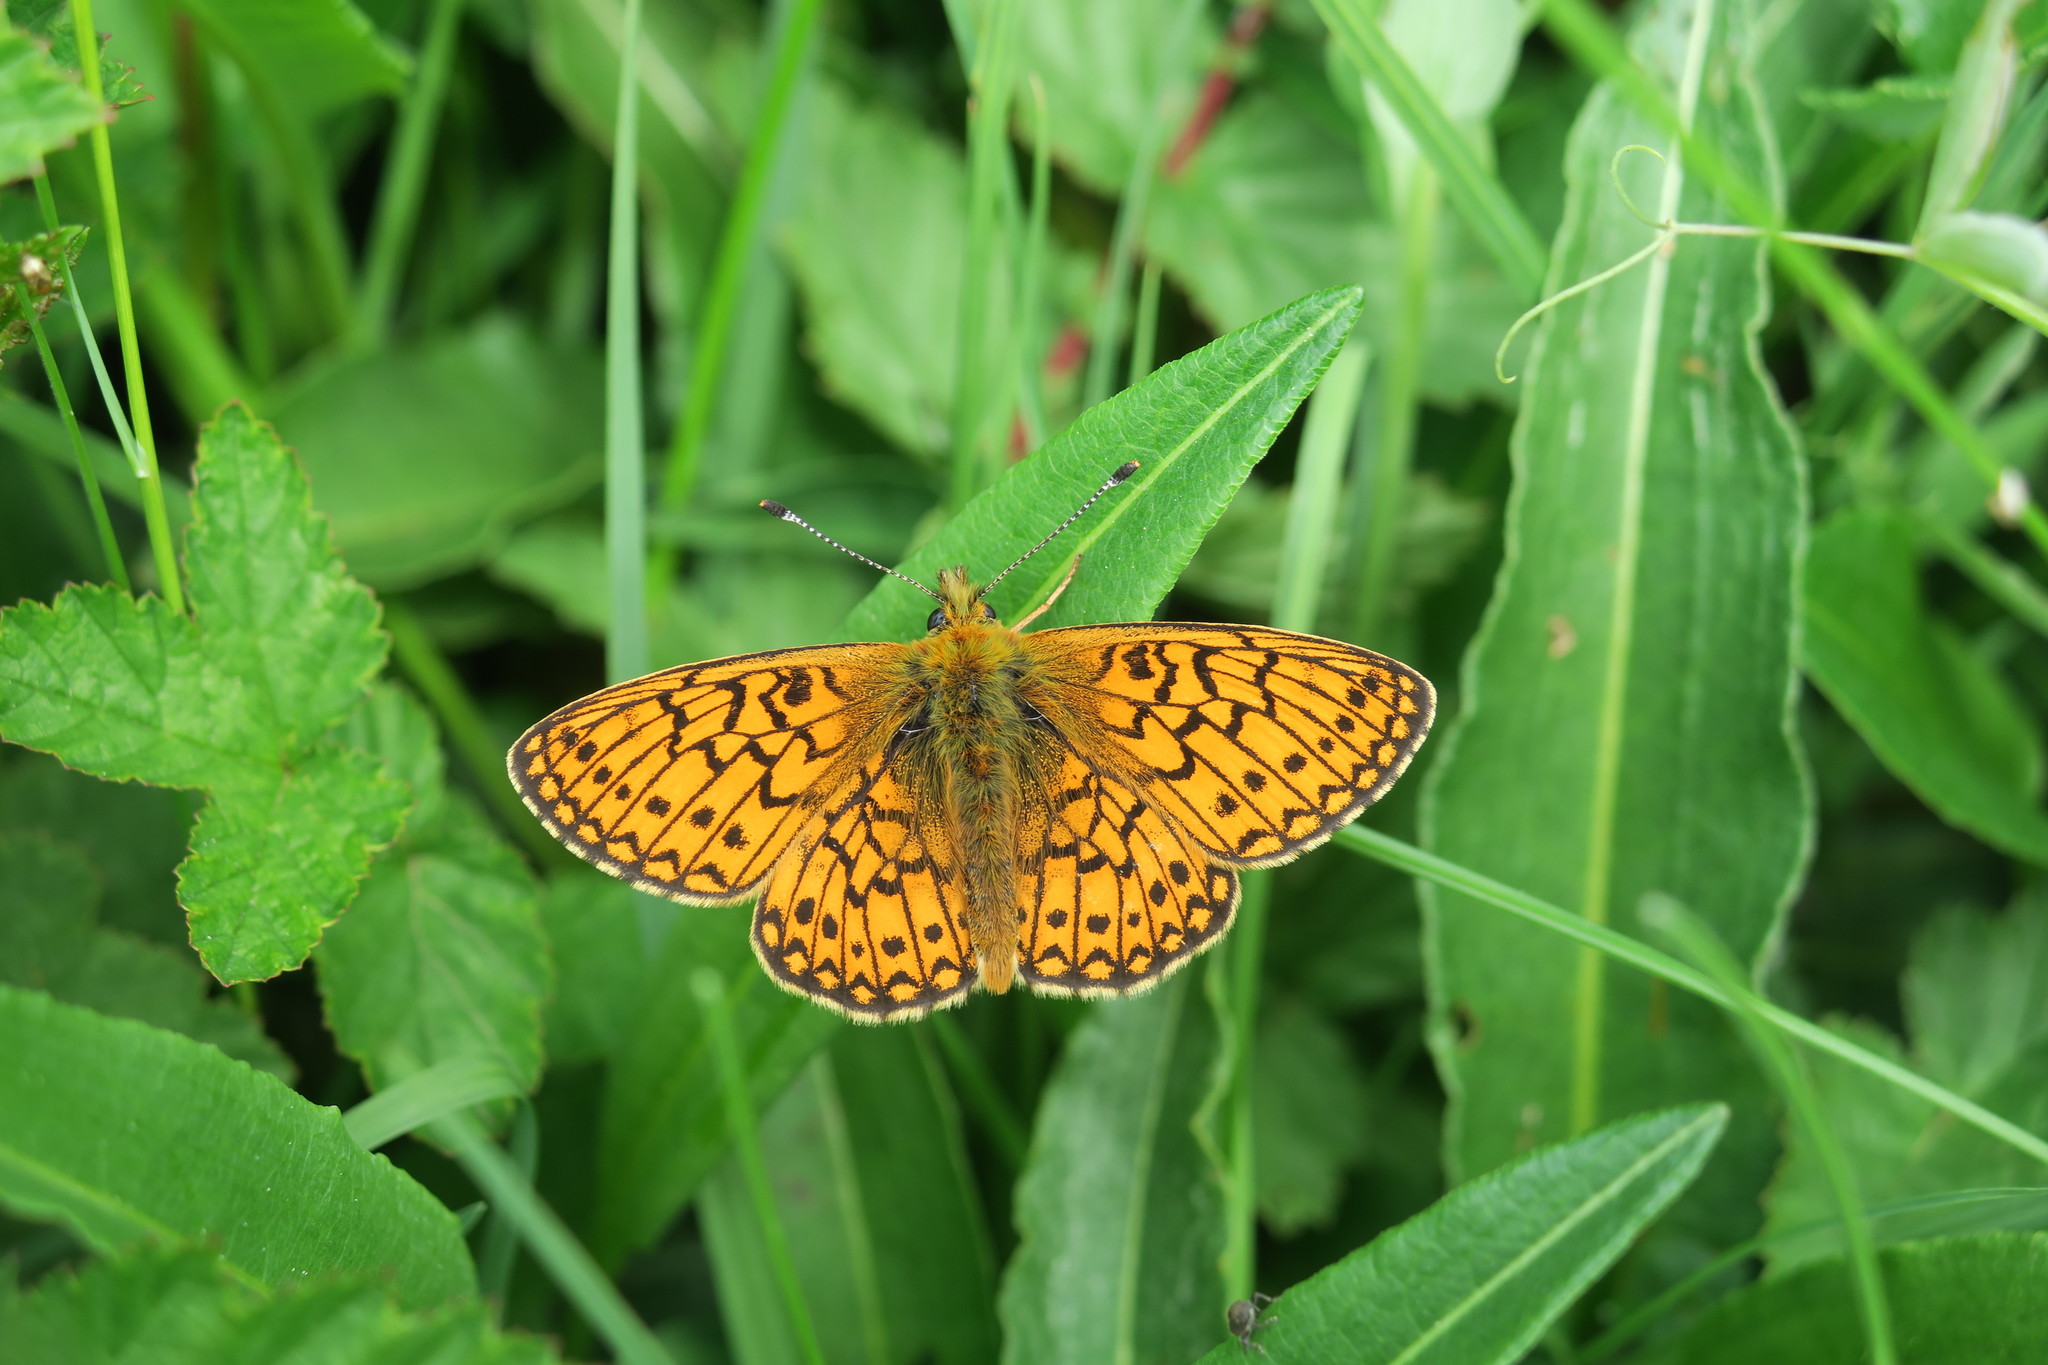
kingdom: Animalia
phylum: Arthropoda
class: Insecta
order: Lepidoptera
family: Nymphalidae
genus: Boloria
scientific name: Boloria eunomia
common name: Bog fritillary
